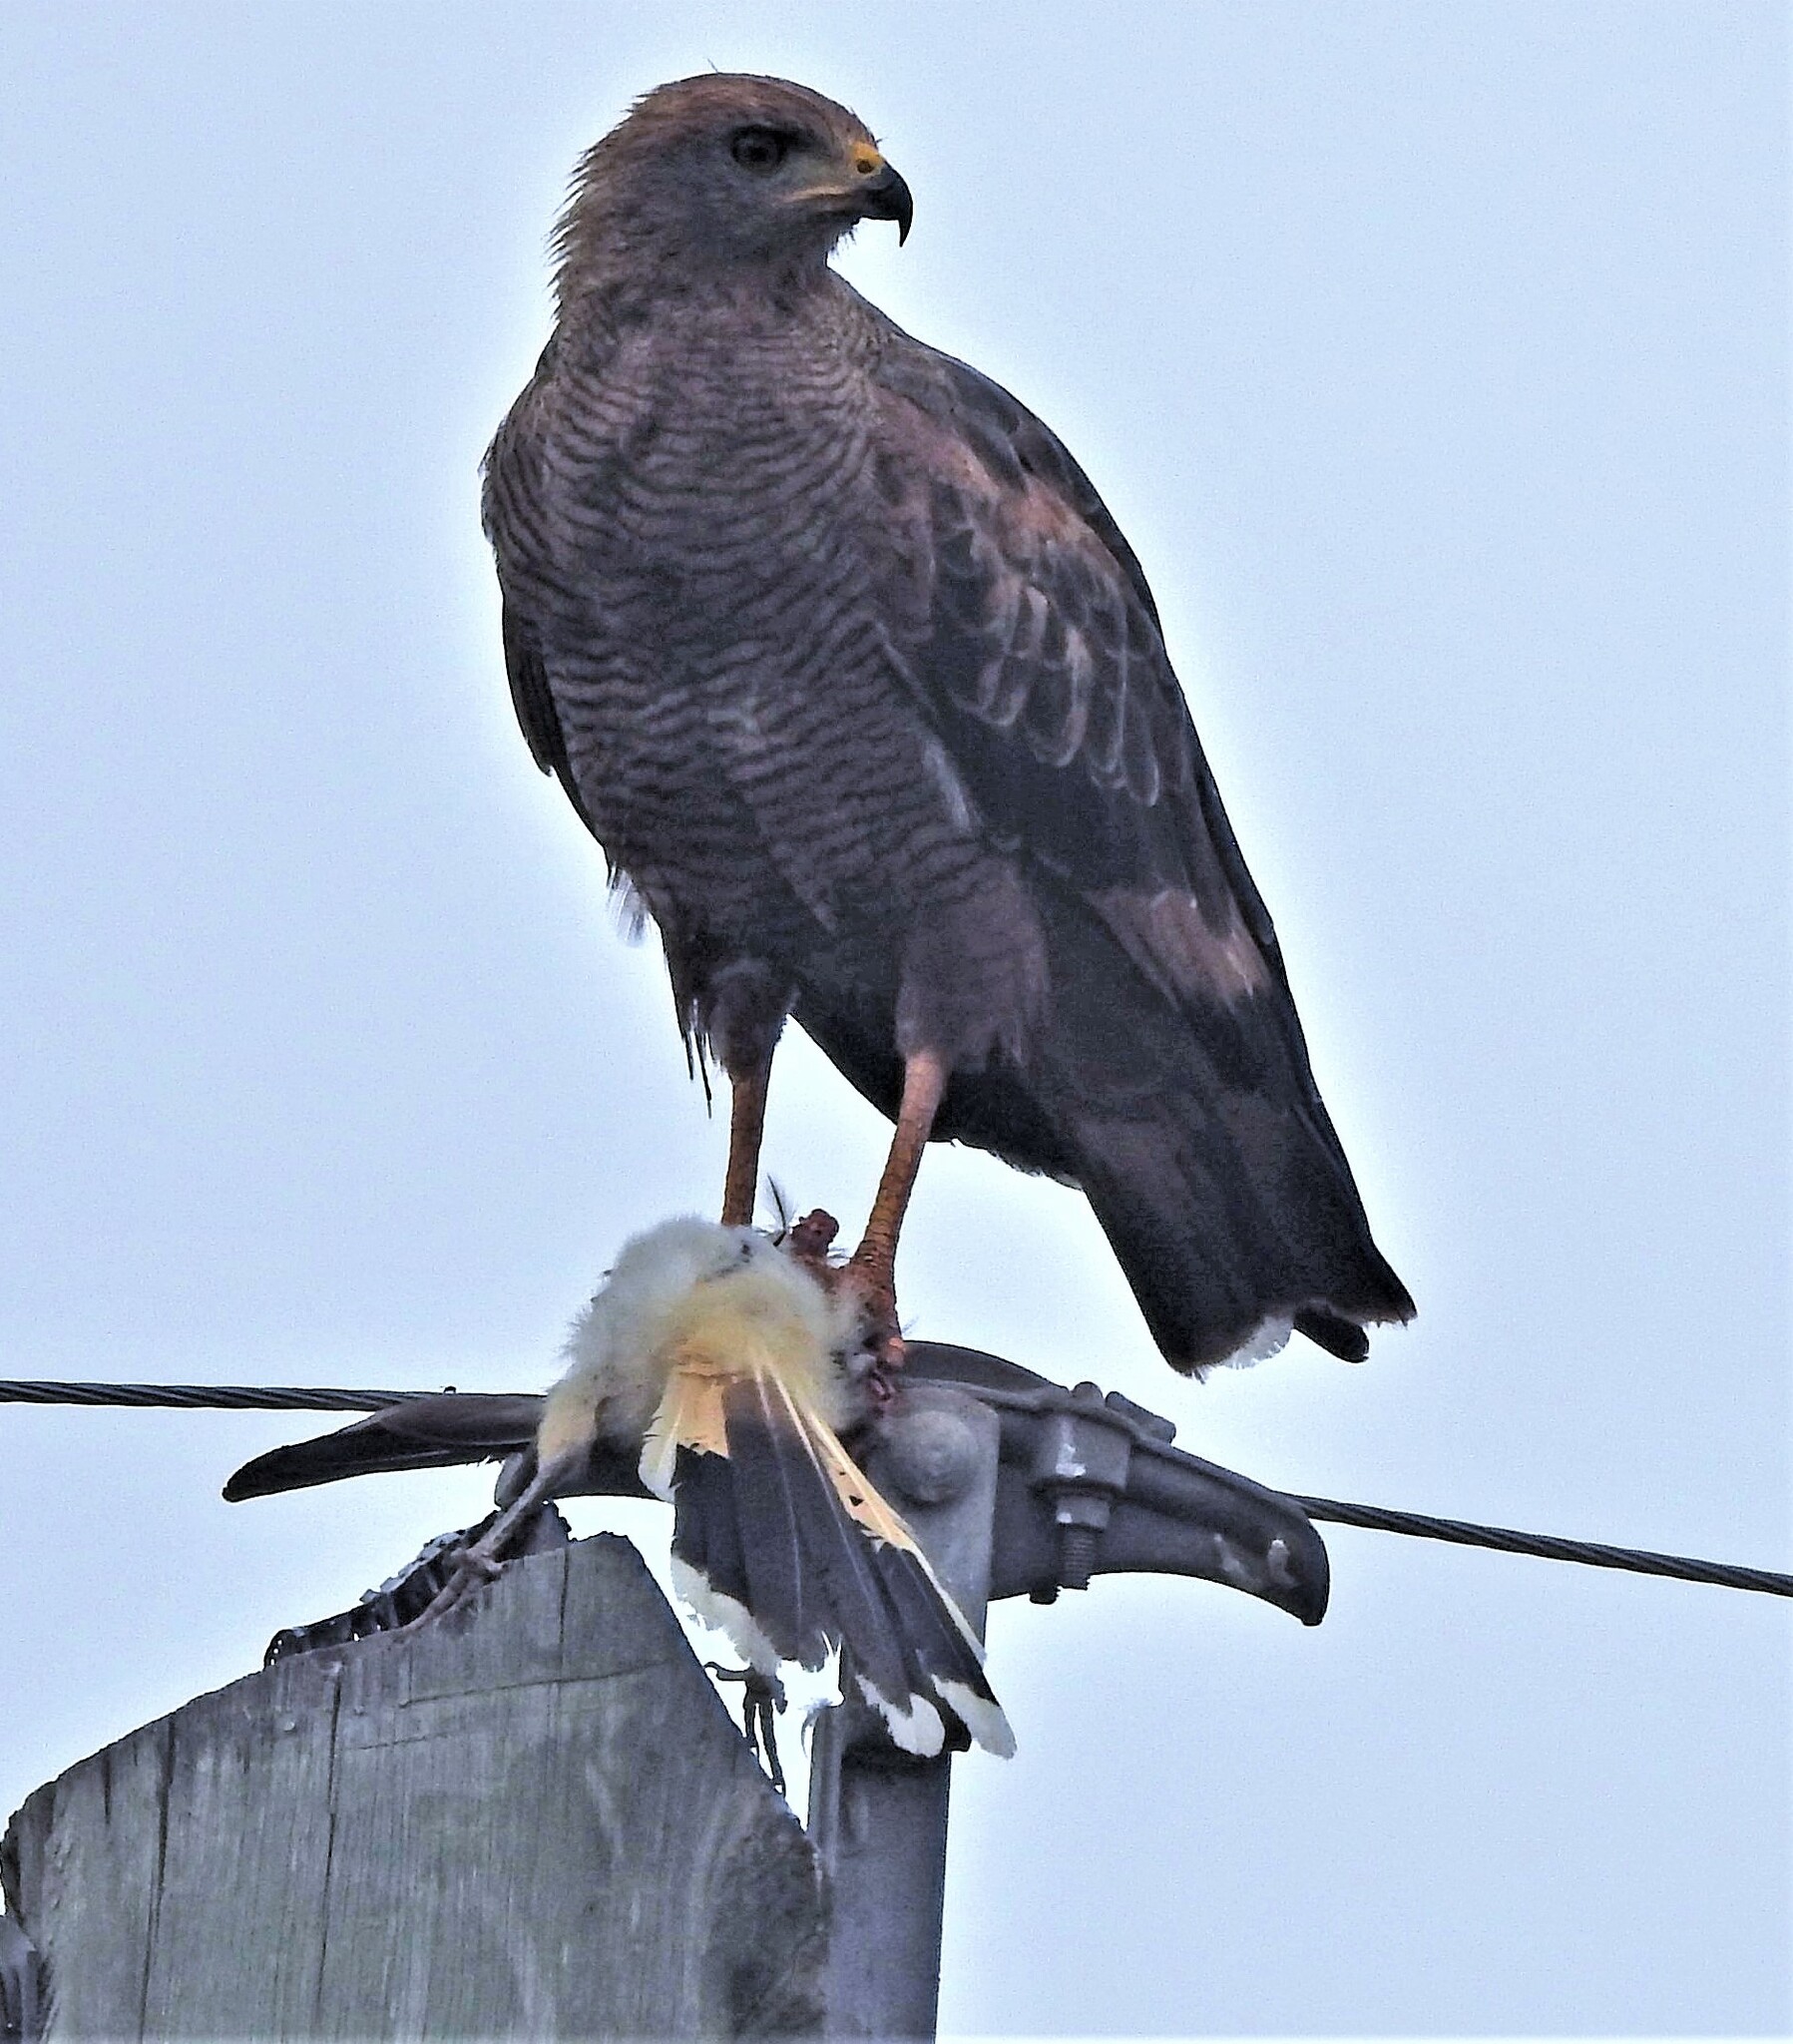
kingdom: Animalia
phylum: Chordata
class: Aves
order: Accipitriformes
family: Accipitridae
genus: Buteogallus
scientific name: Buteogallus meridionalis
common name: Savanna hawk
